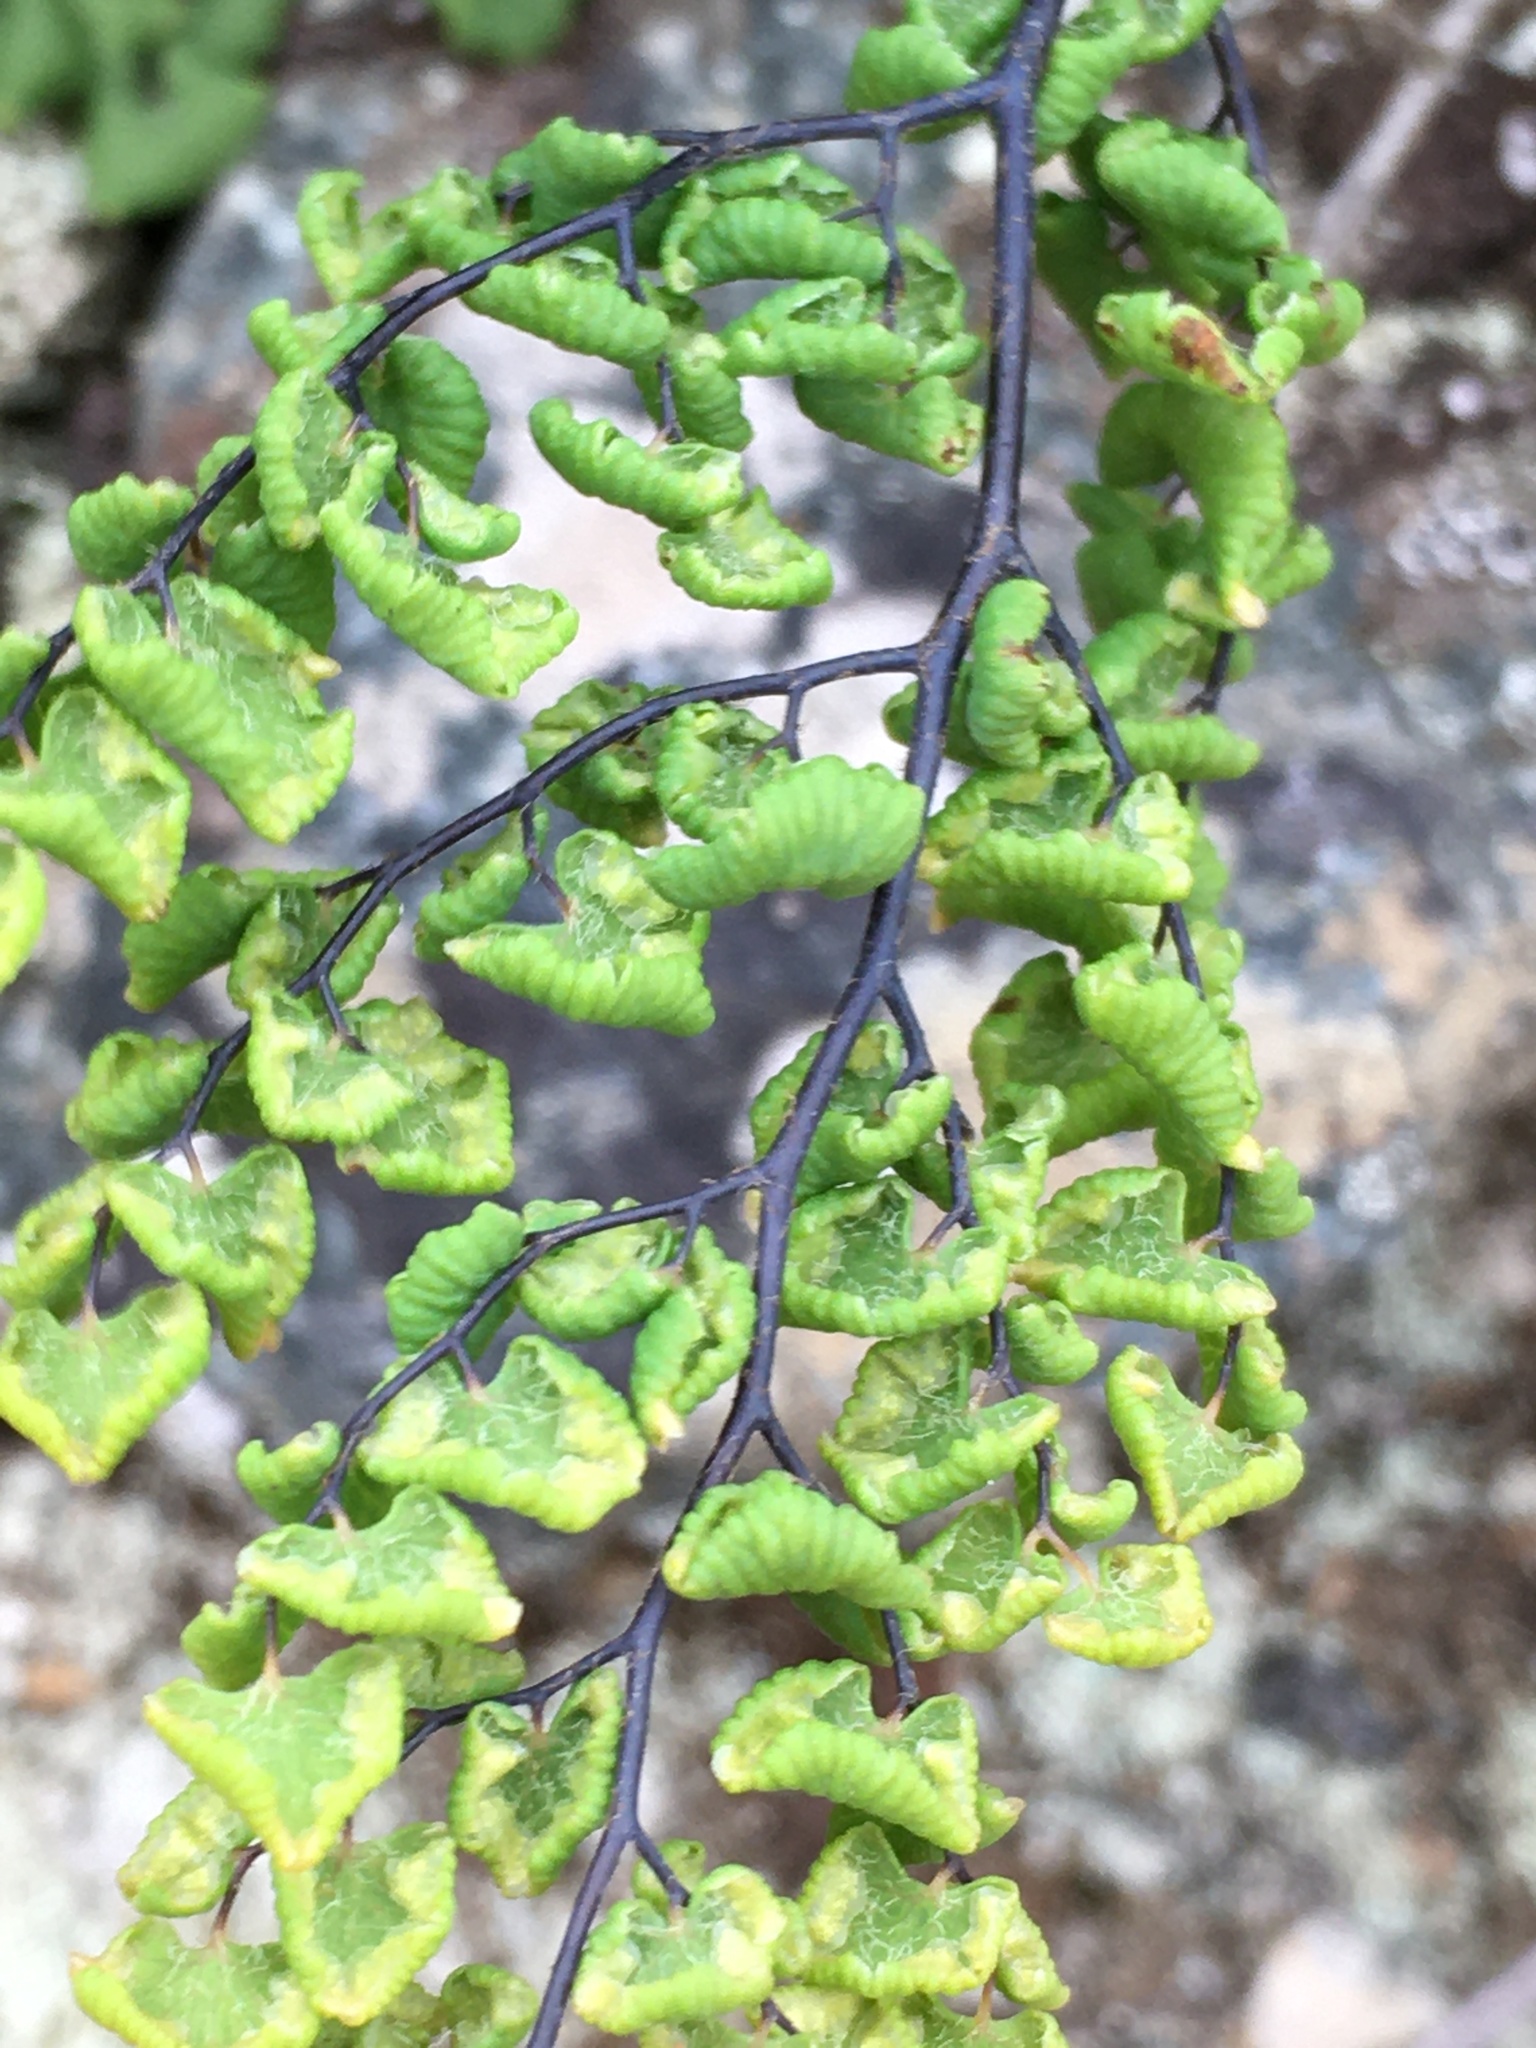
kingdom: Plantae
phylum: Tracheophyta
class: Polypodiopsida
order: Polypodiales
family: Pteridaceae
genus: Adiantum
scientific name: Adiantum chilense
